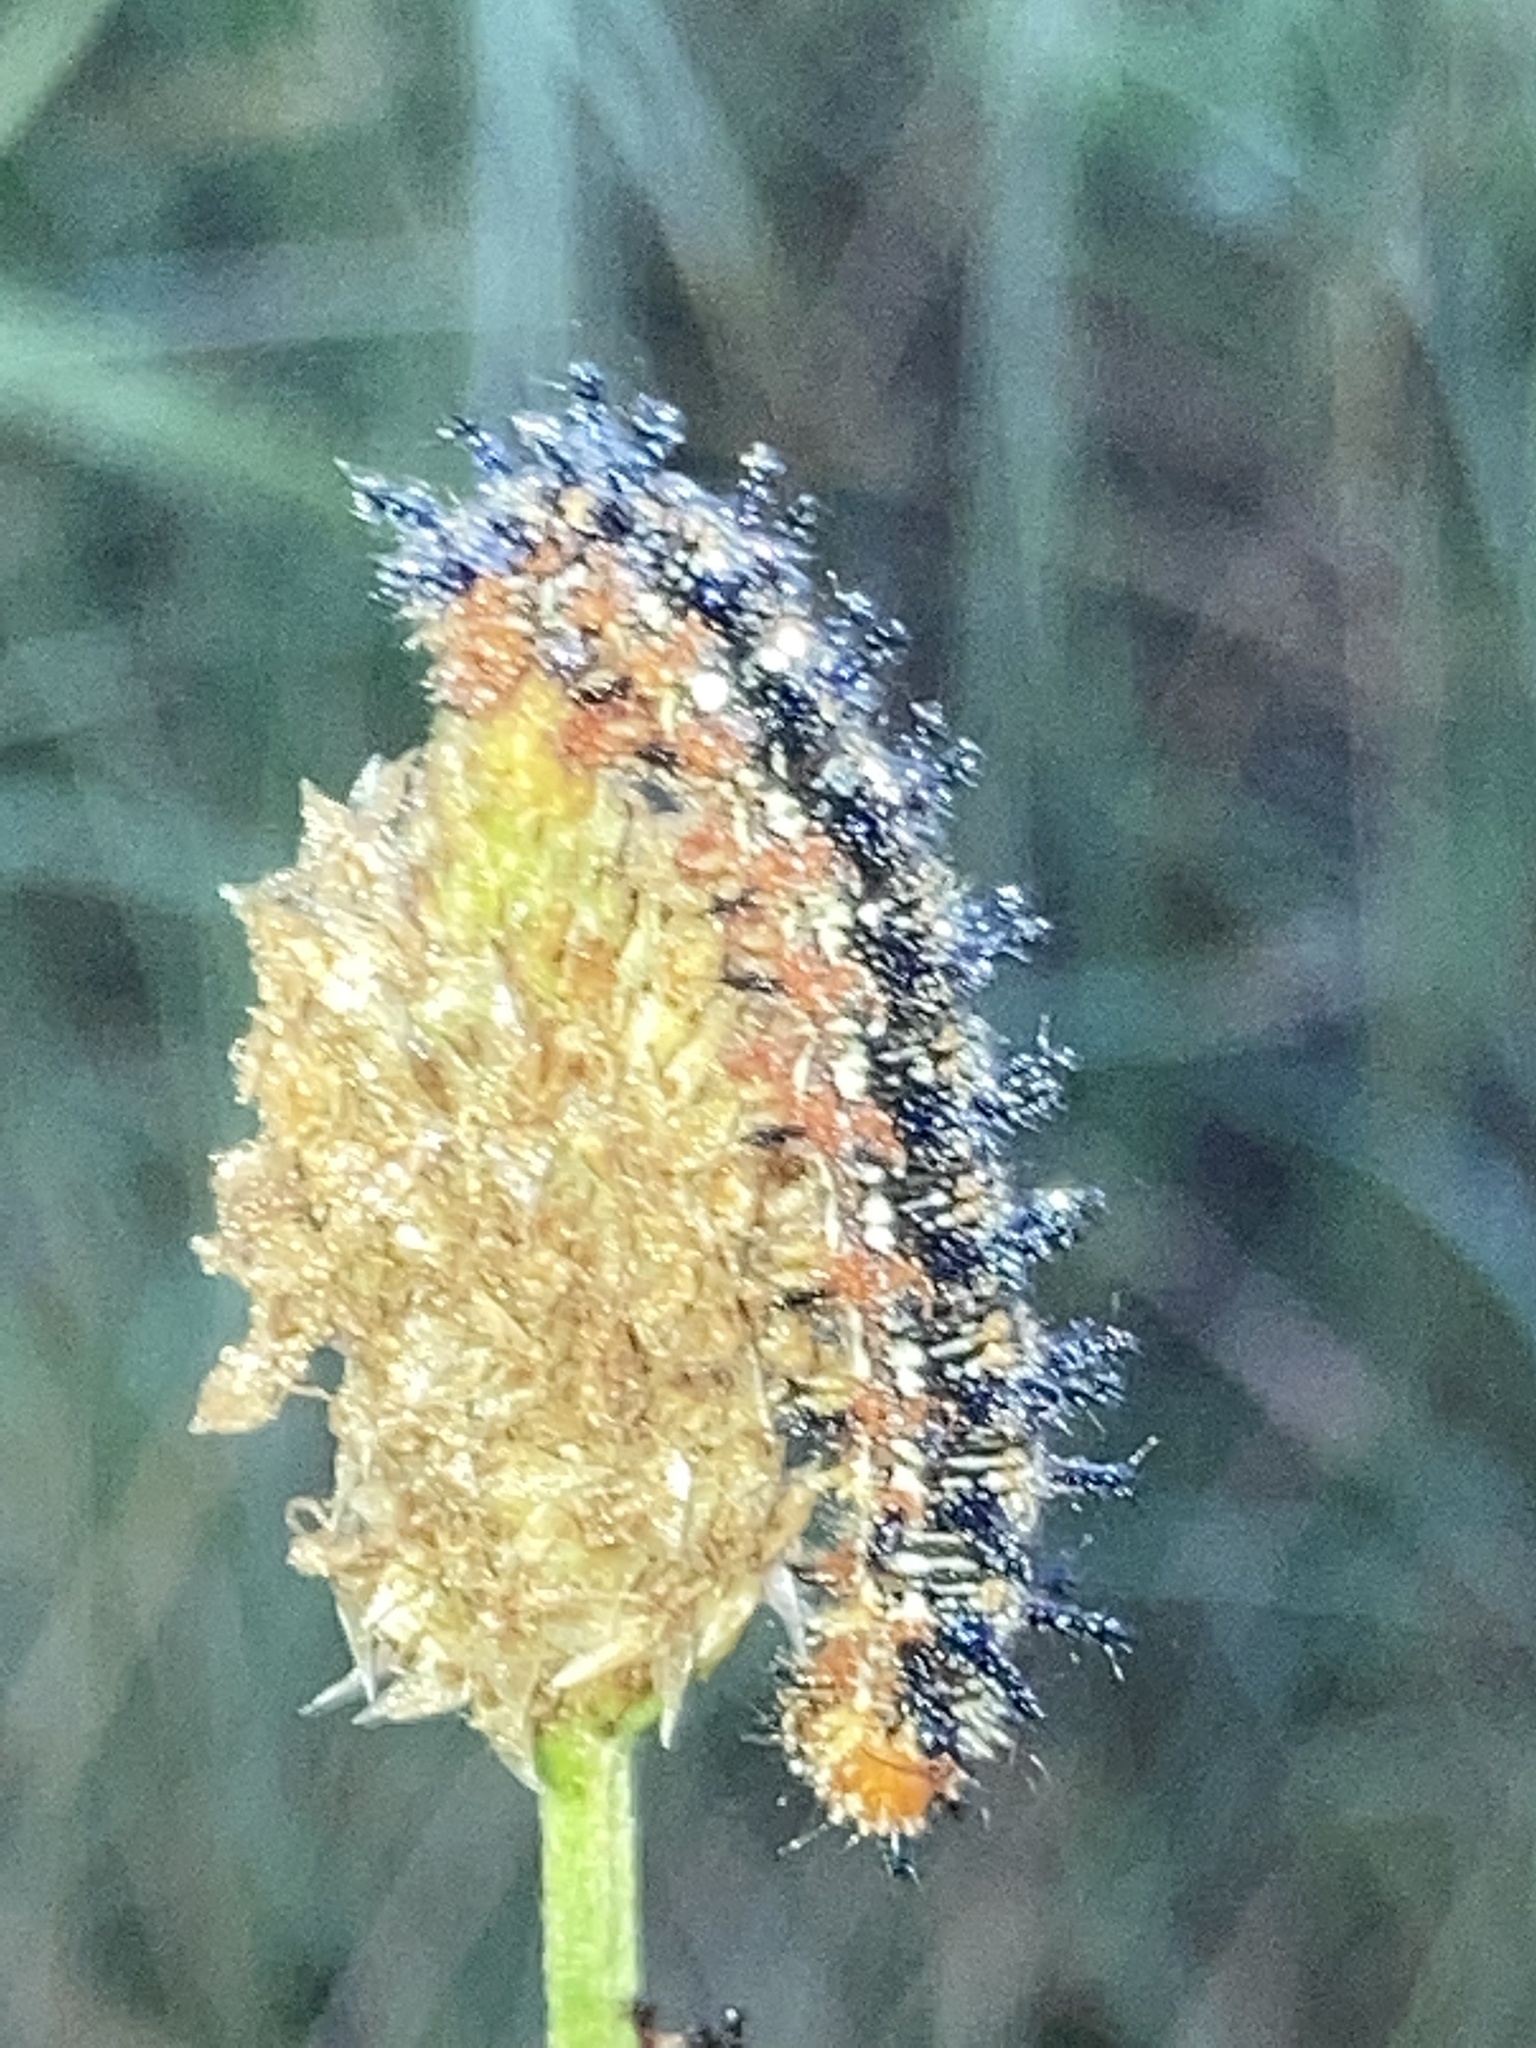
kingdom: Animalia
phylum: Arthropoda
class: Insecta
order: Lepidoptera
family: Nymphalidae
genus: Junonia
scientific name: Junonia coenia
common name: Common buckeye
